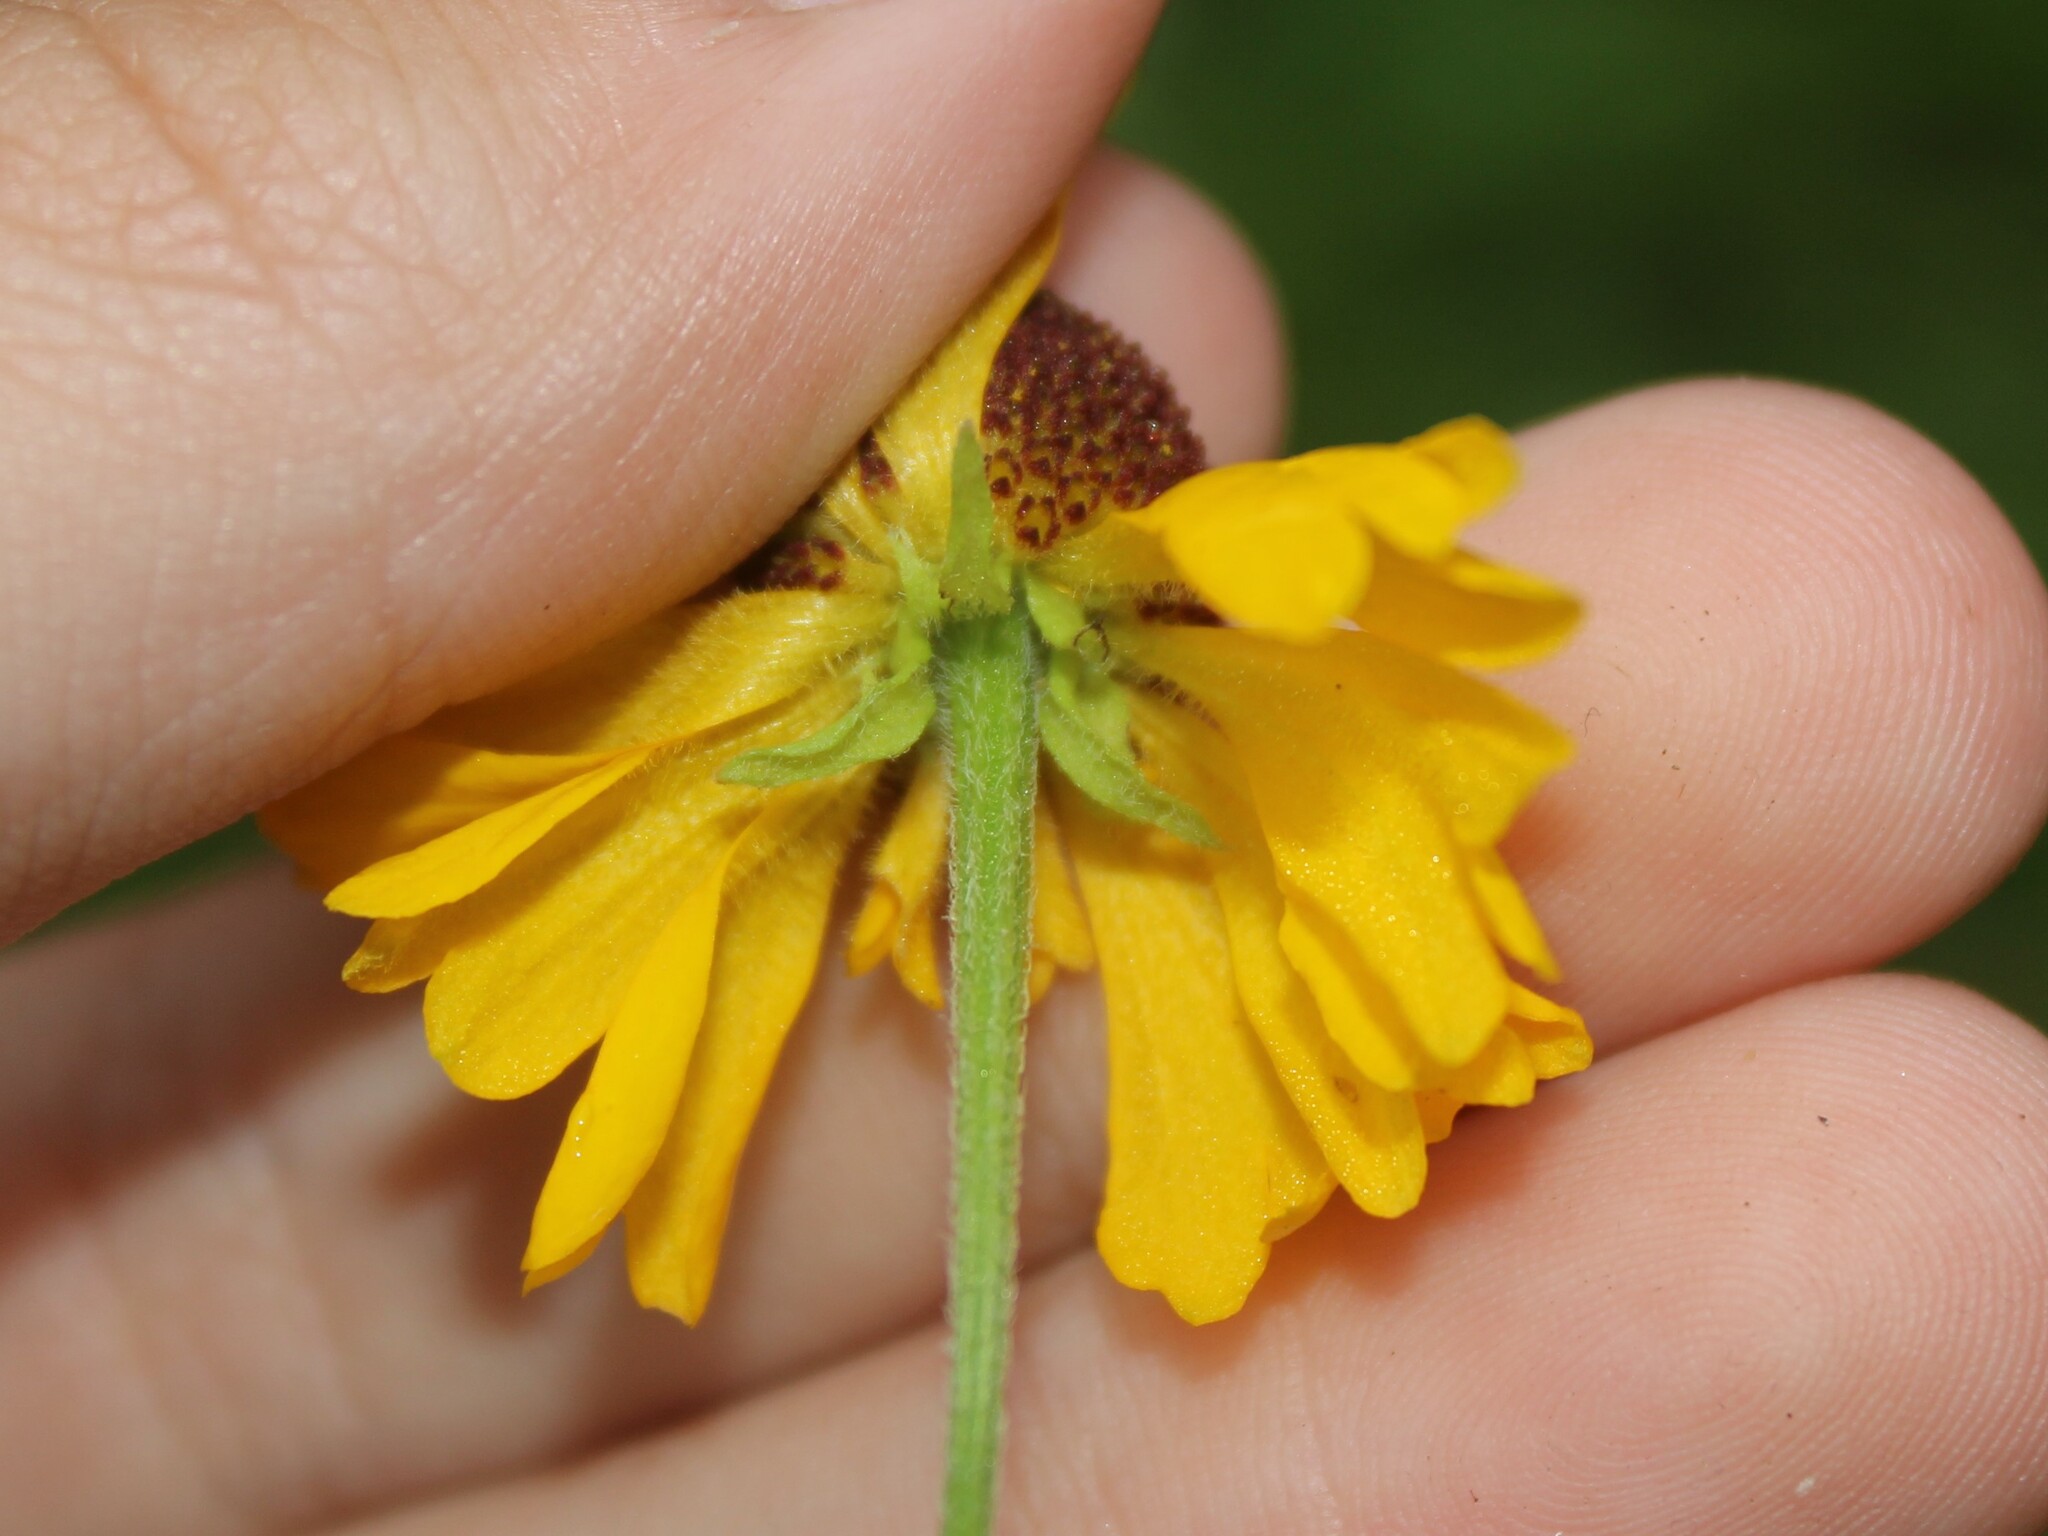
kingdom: Plantae
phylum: Tracheophyta
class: Magnoliopsida
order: Asterales
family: Asteraceae
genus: Helenium
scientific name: Helenium flexuosum
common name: Naked-flowered sneezeweed
